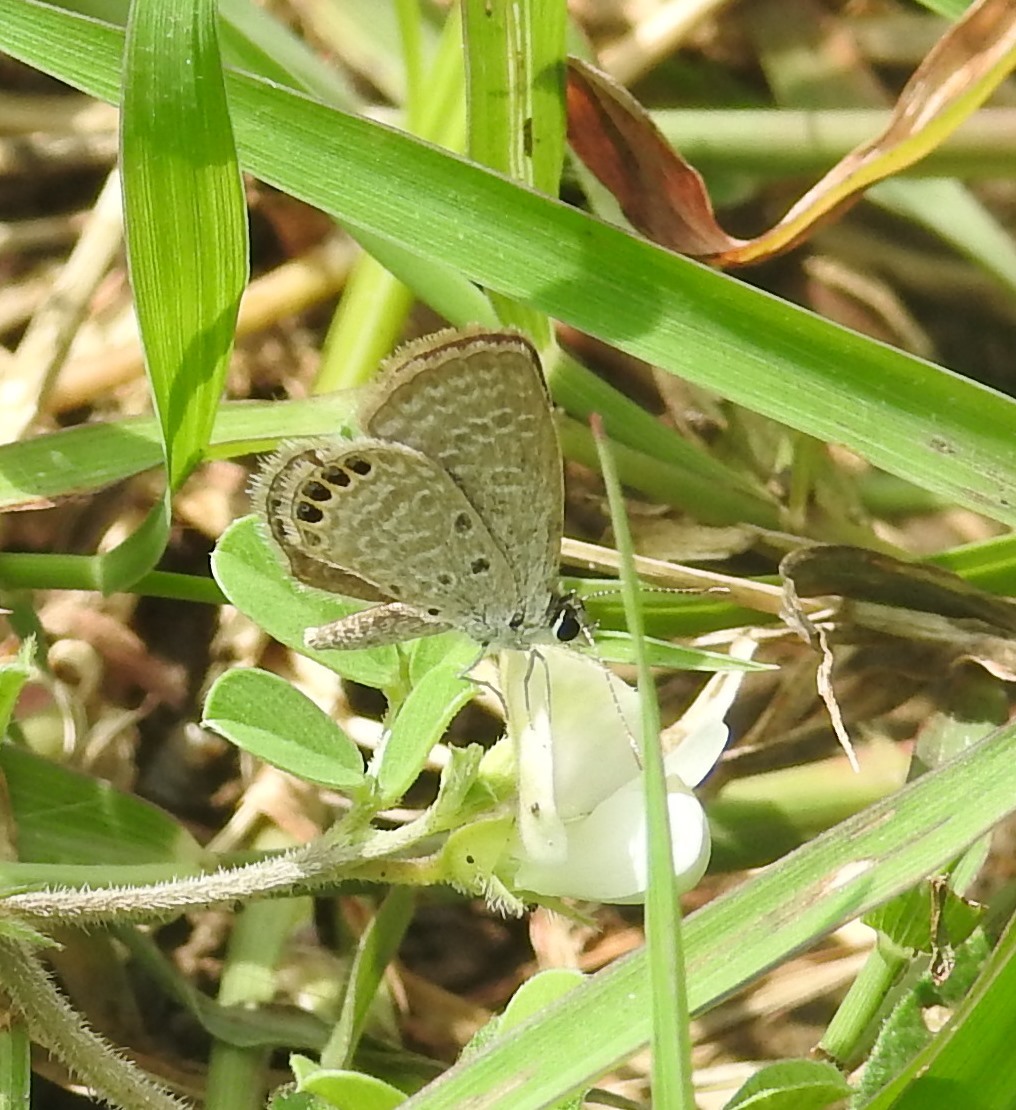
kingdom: Animalia
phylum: Arthropoda
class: Insecta
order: Lepidoptera
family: Lycaenidae
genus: Freyeria
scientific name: Freyeria putli
